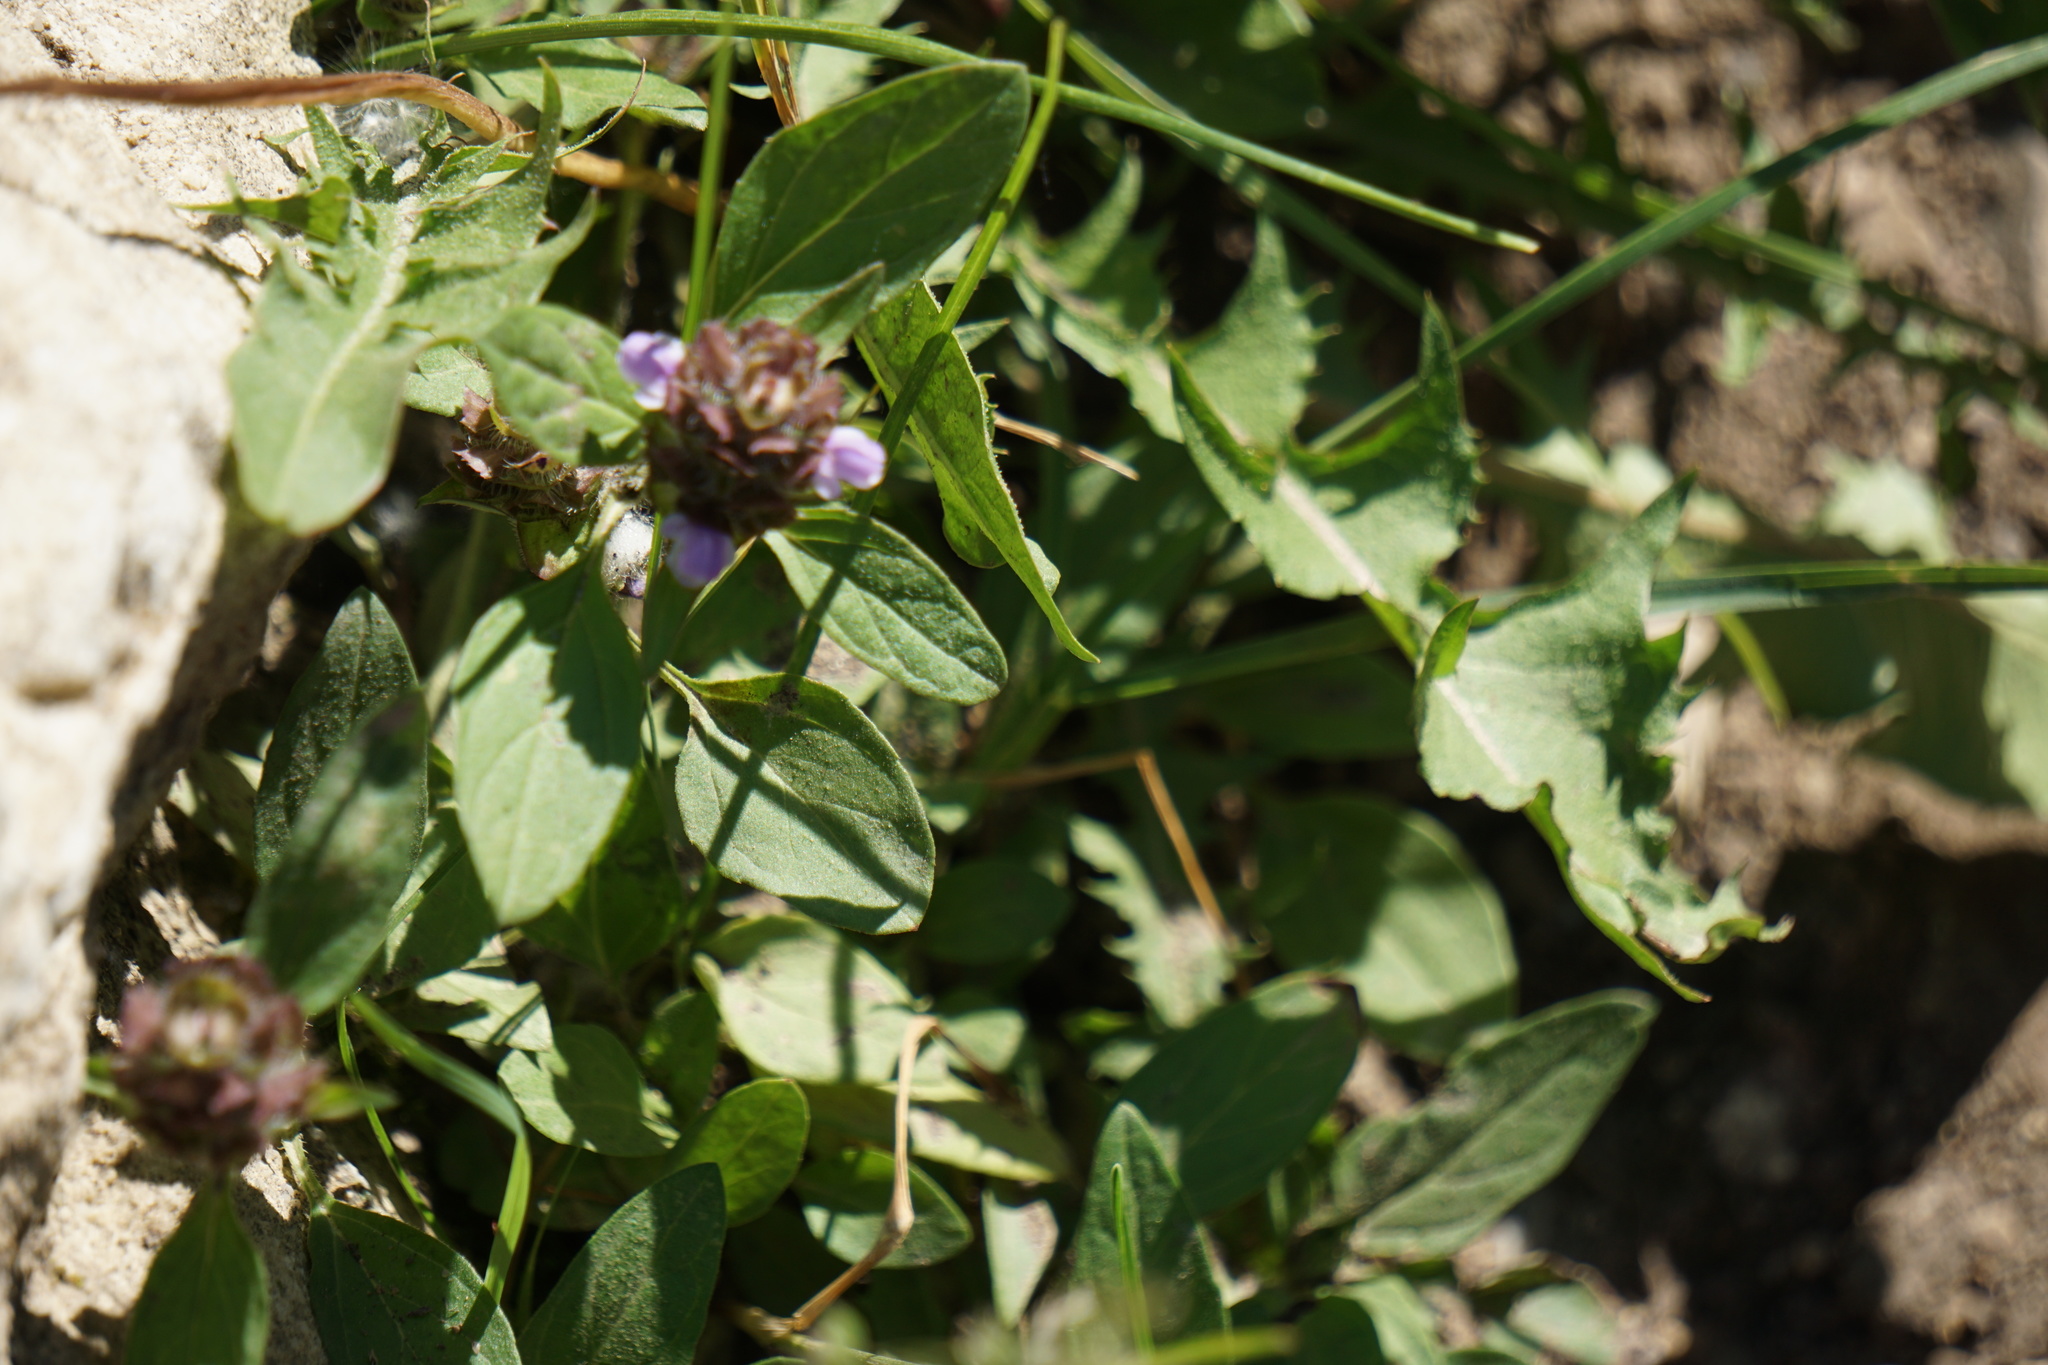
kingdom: Plantae
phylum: Tracheophyta
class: Magnoliopsida
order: Lamiales
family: Lamiaceae
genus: Prunella
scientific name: Prunella vulgaris
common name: Heal-all
